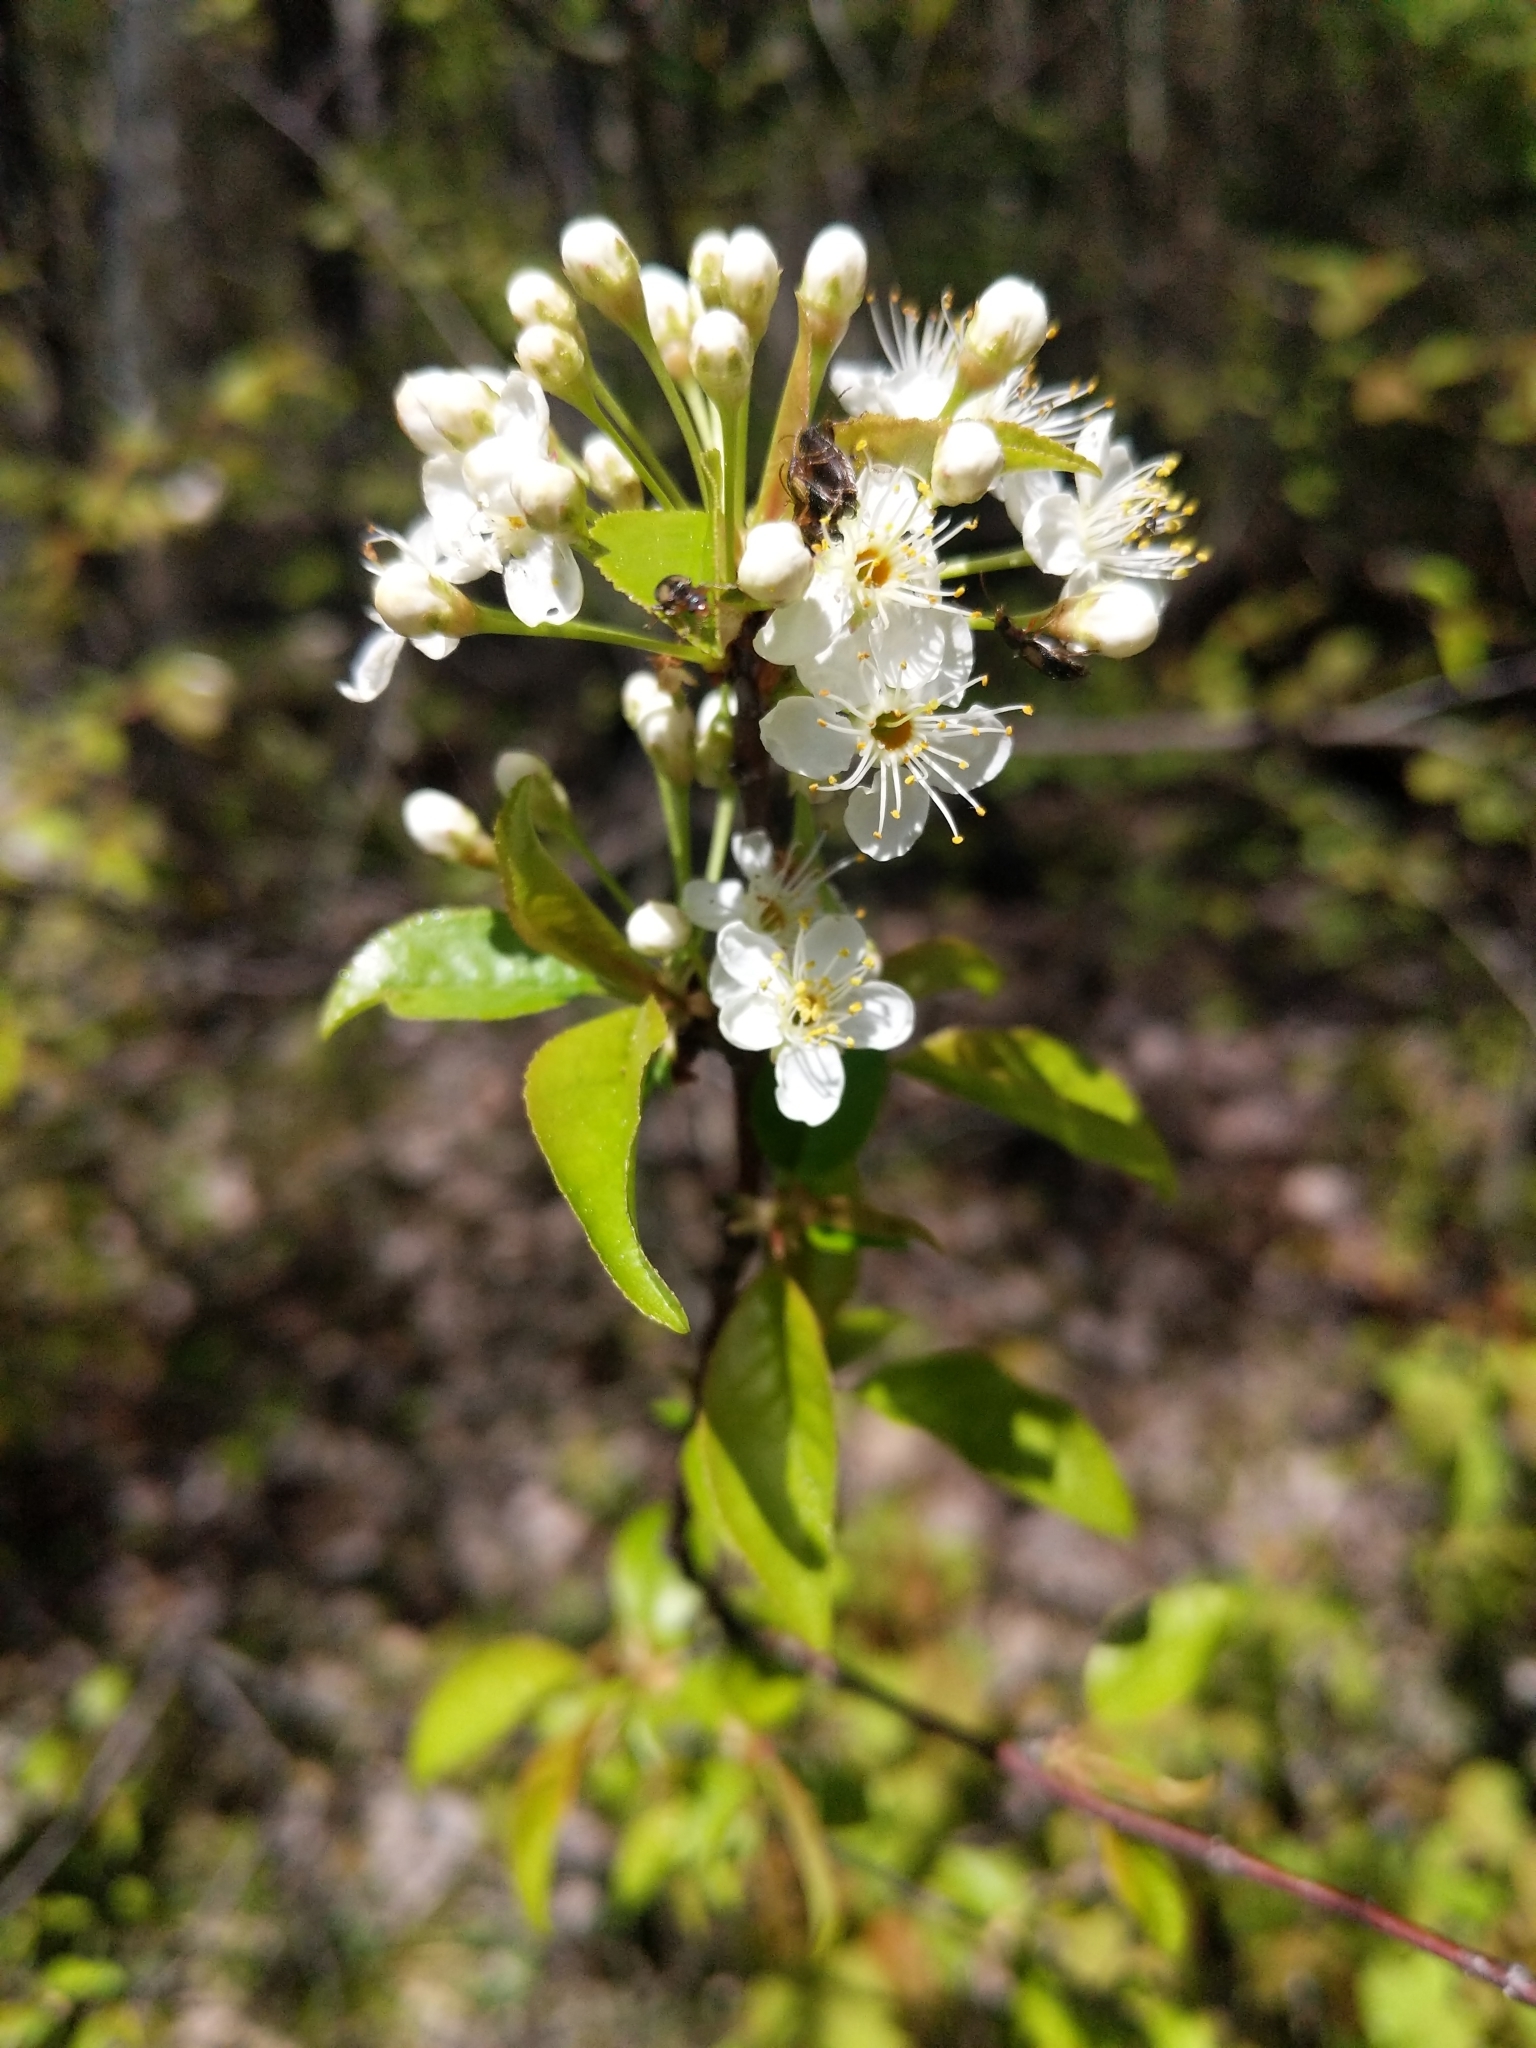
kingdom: Plantae
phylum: Tracheophyta
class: Magnoliopsida
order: Rosales
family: Rosaceae
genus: Prunus
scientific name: Prunus pensylvanica
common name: Pin cherry
